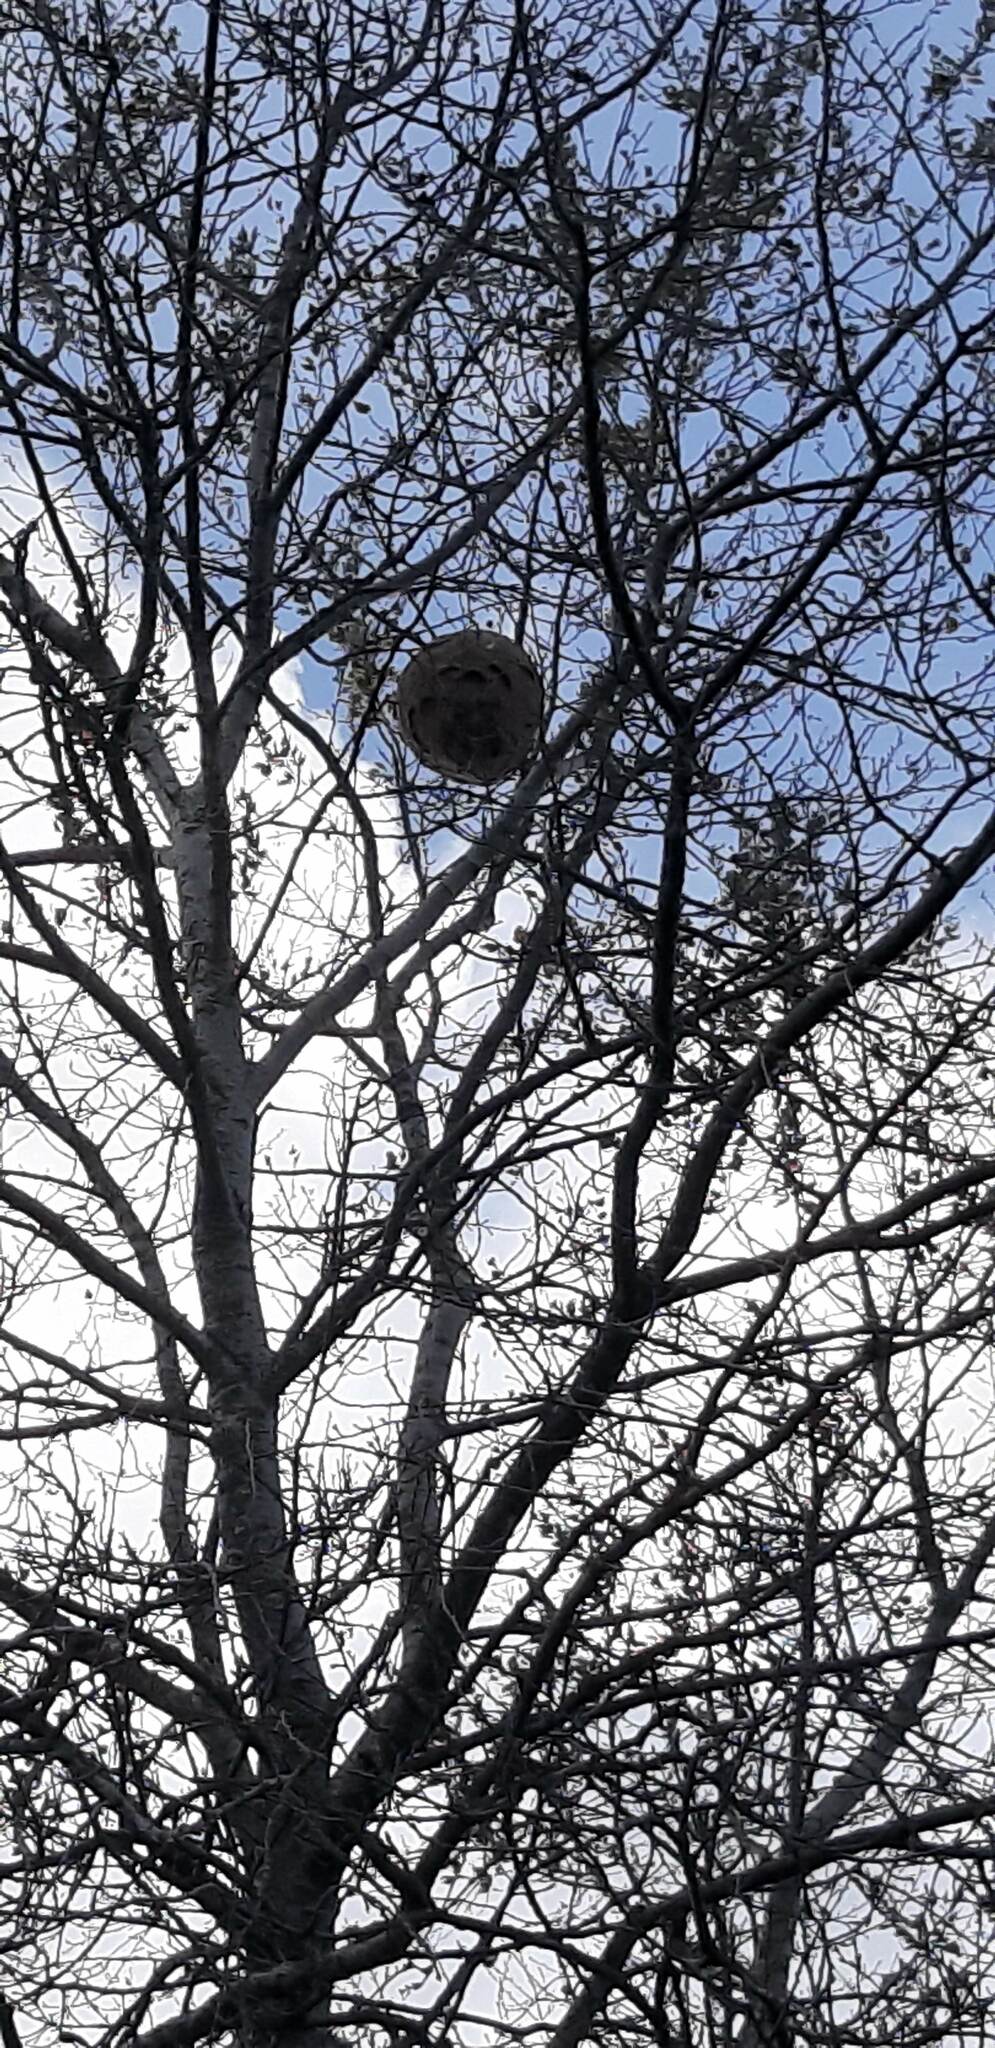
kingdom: Animalia
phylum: Arthropoda
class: Insecta
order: Hymenoptera
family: Vespidae
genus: Vespa
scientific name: Vespa velutina
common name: Asian hornet
